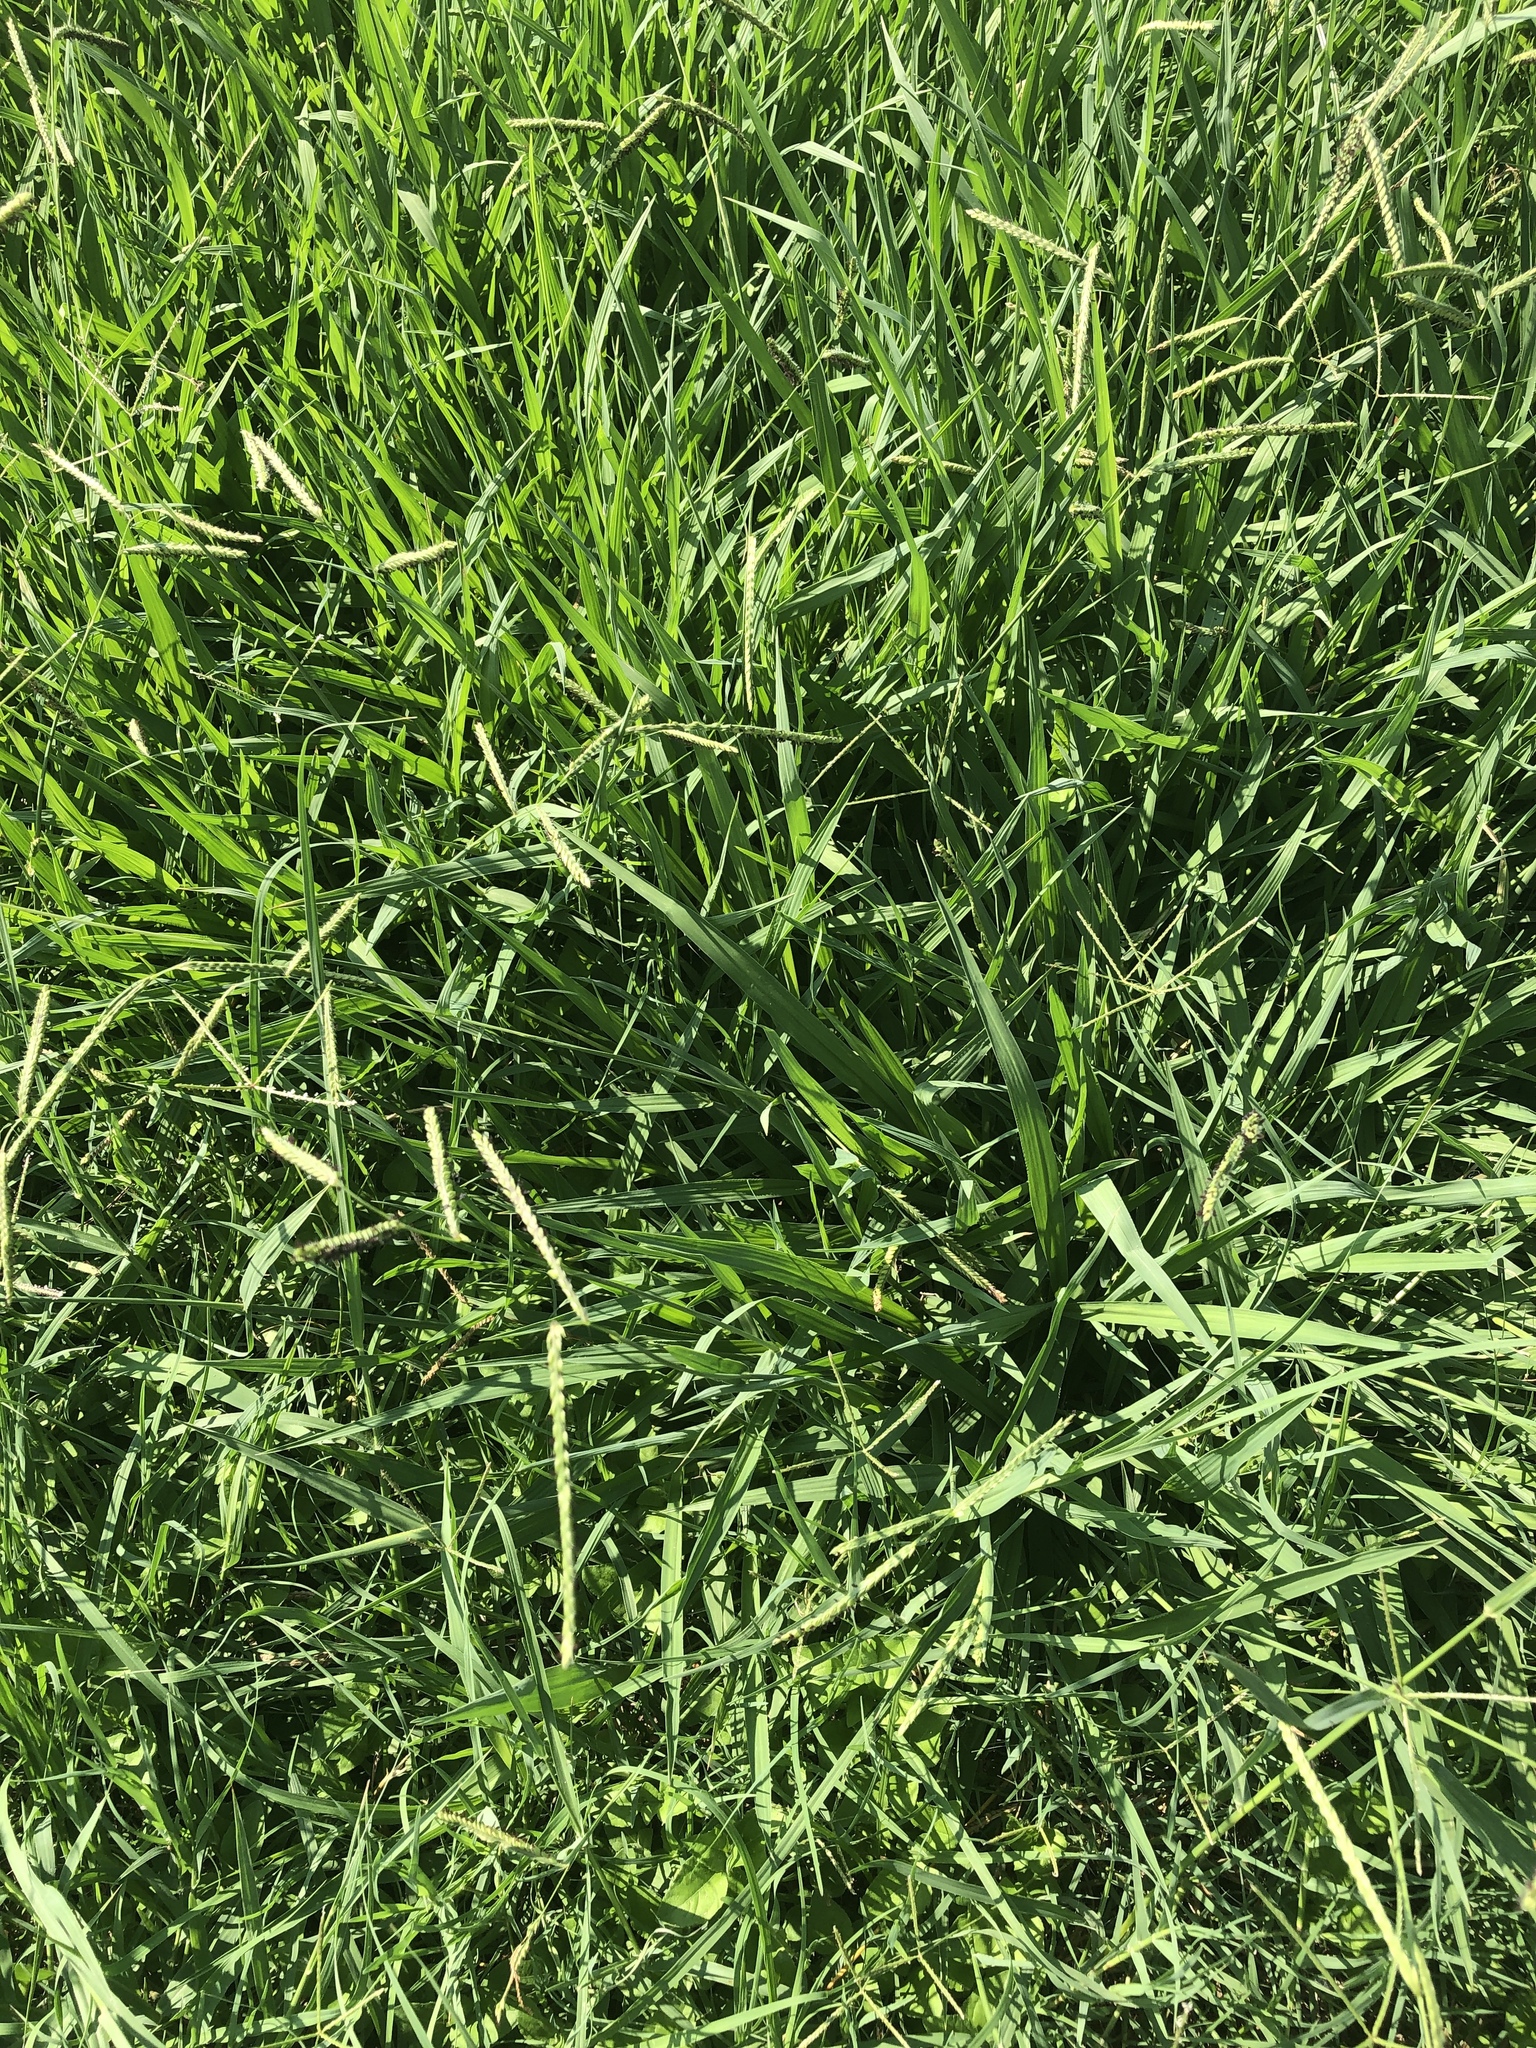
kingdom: Plantae
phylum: Tracheophyta
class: Liliopsida
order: Poales
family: Poaceae
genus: Paspalum
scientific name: Paspalum dilatatum
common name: Dallisgrass
